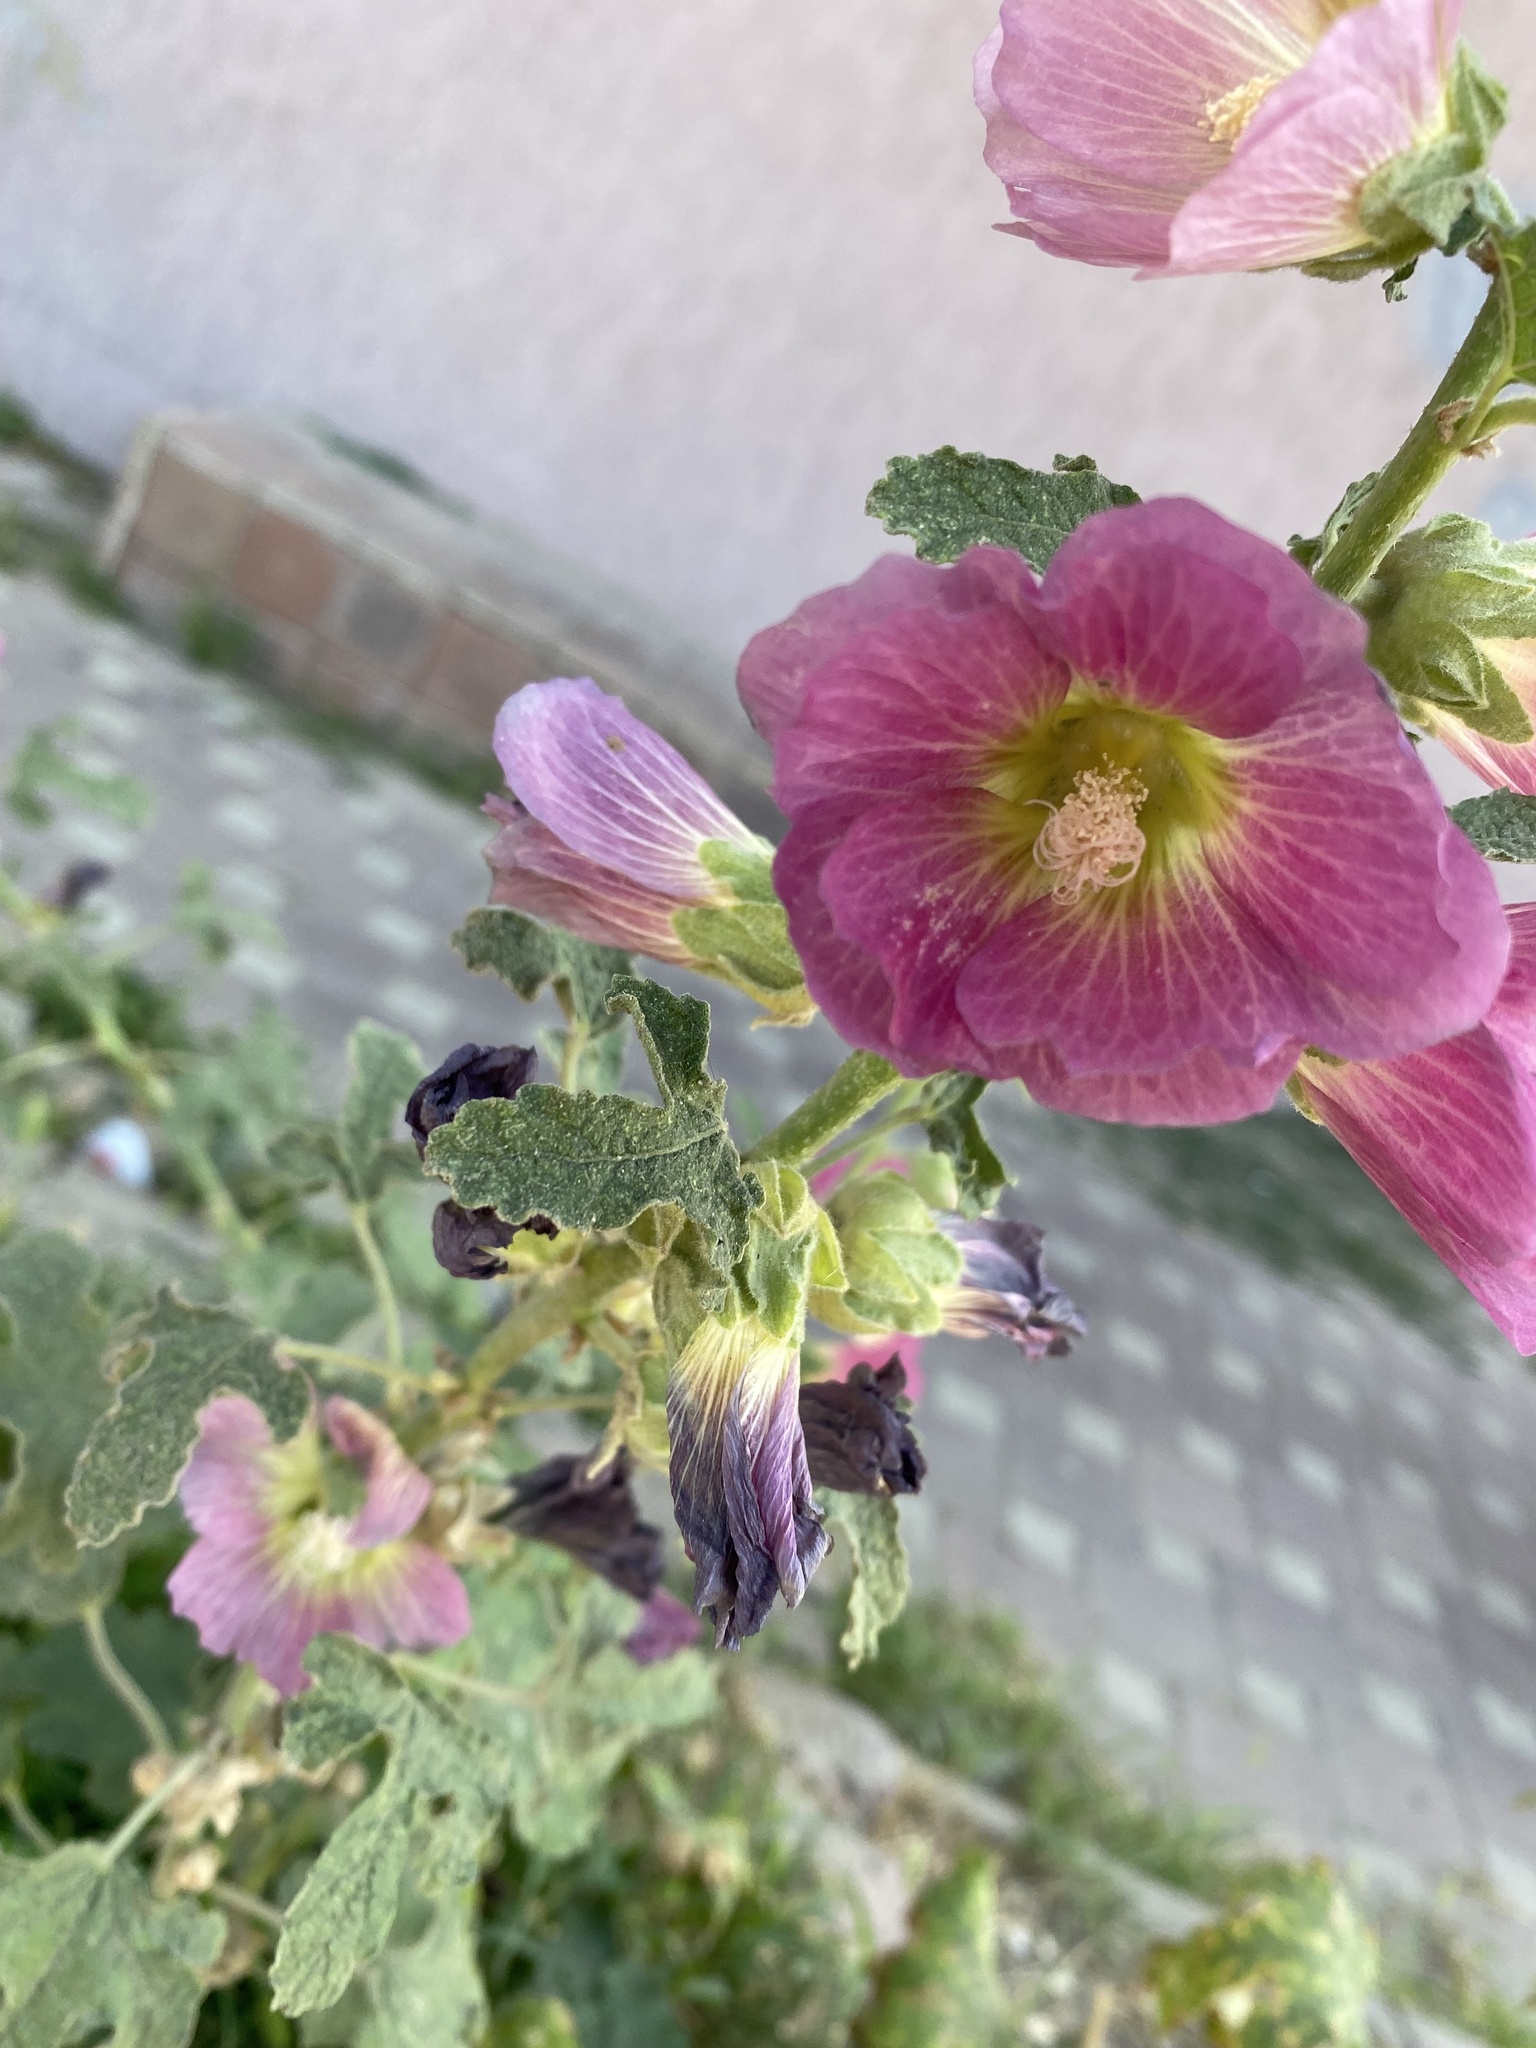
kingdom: Plantae
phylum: Tracheophyta
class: Magnoliopsida
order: Malvales
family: Malvaceae
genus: Alcea
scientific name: Alcea rosea
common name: Hollyhock
